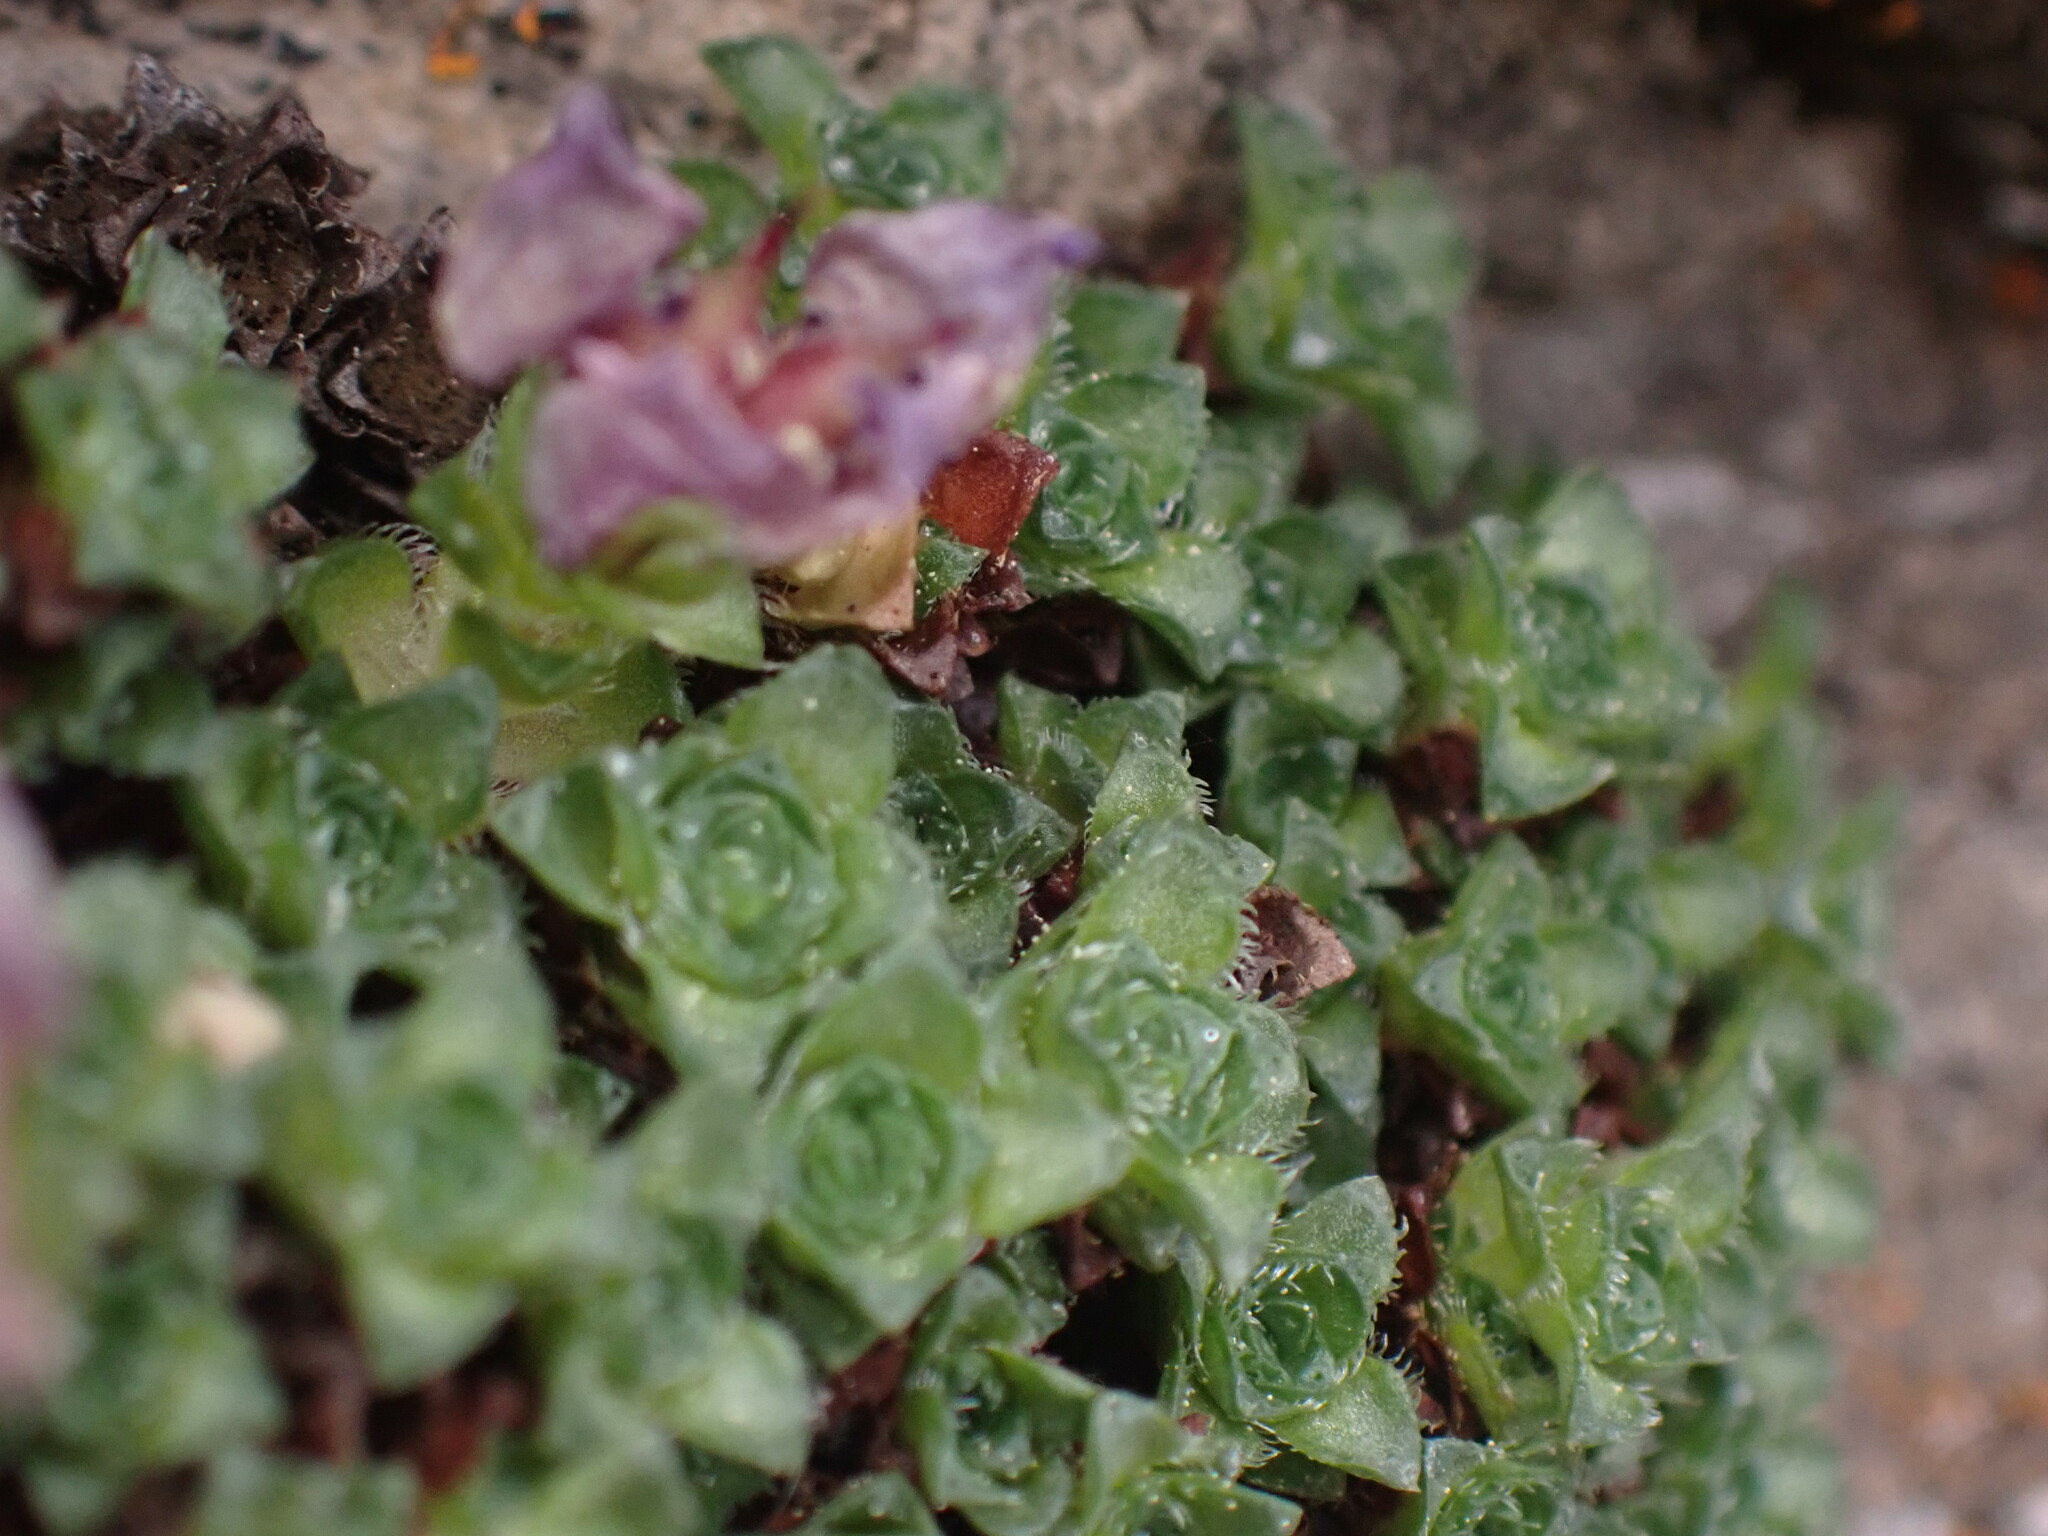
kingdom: Plantae
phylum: Tracheophyta
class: Magnoliopsida
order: Saxifragales
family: Saxifragaceae
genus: Saxifraga
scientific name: Saxifraga oppositifolia
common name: Purple saxifrage
